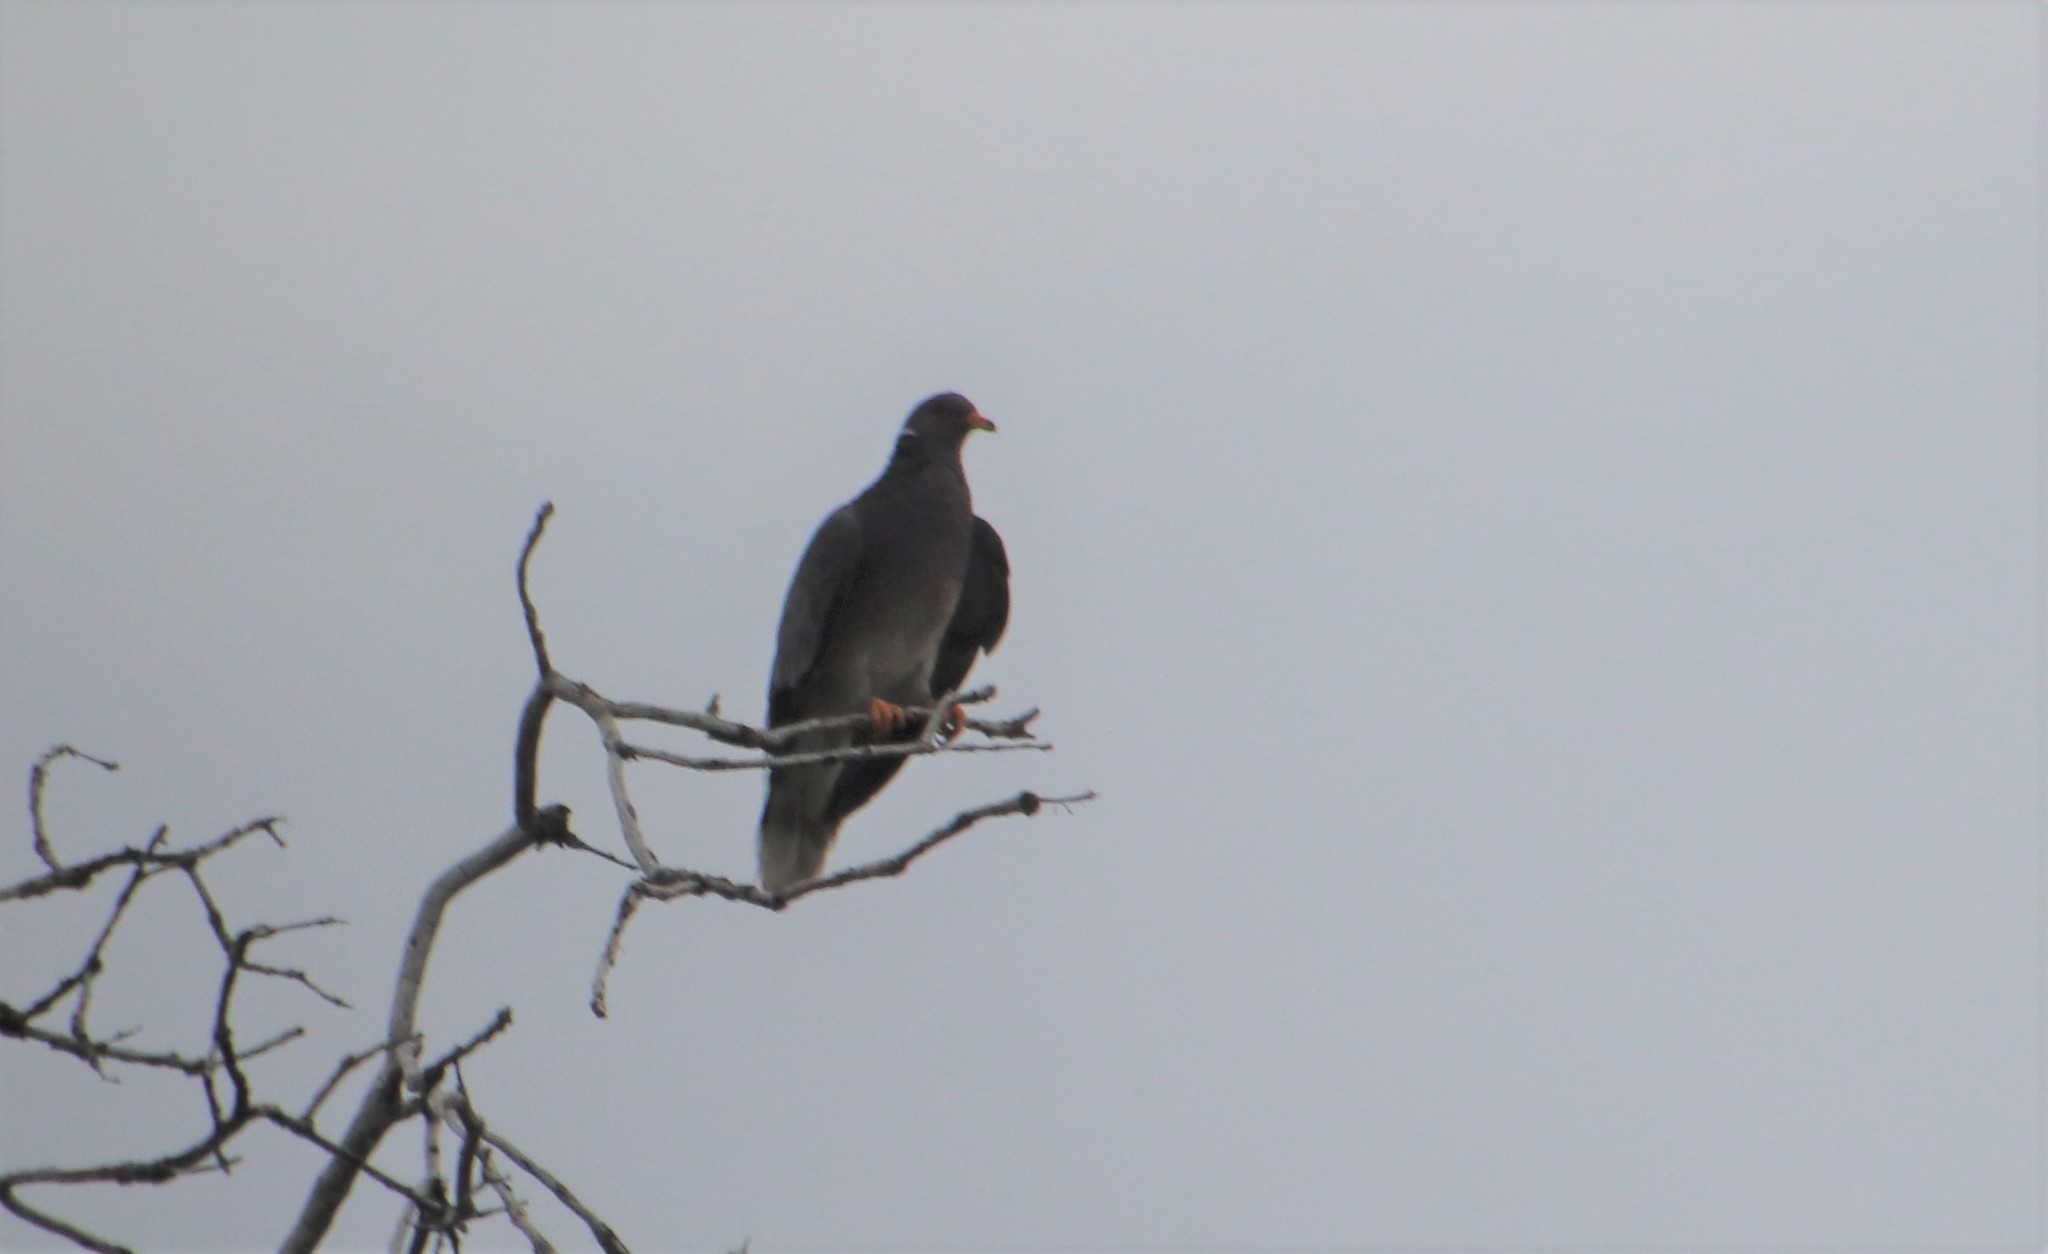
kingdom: Animalia
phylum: Chordata
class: Aves
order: Columbiformes
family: Columbidae
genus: Patagioenas
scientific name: Patagioenas fasciata
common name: Band-tailed pigeon
